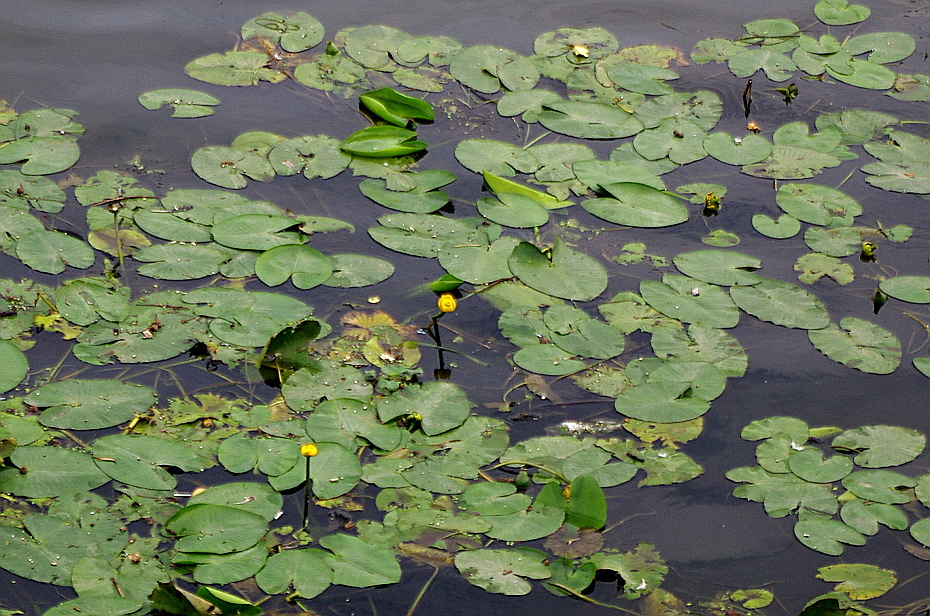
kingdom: Plantae
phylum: Tracheophyta
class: Magnoliopsida
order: Nymphaeales
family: Nymphaeaceae
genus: Nuphar
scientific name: Nuphar lutea
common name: Yellow water-lily
